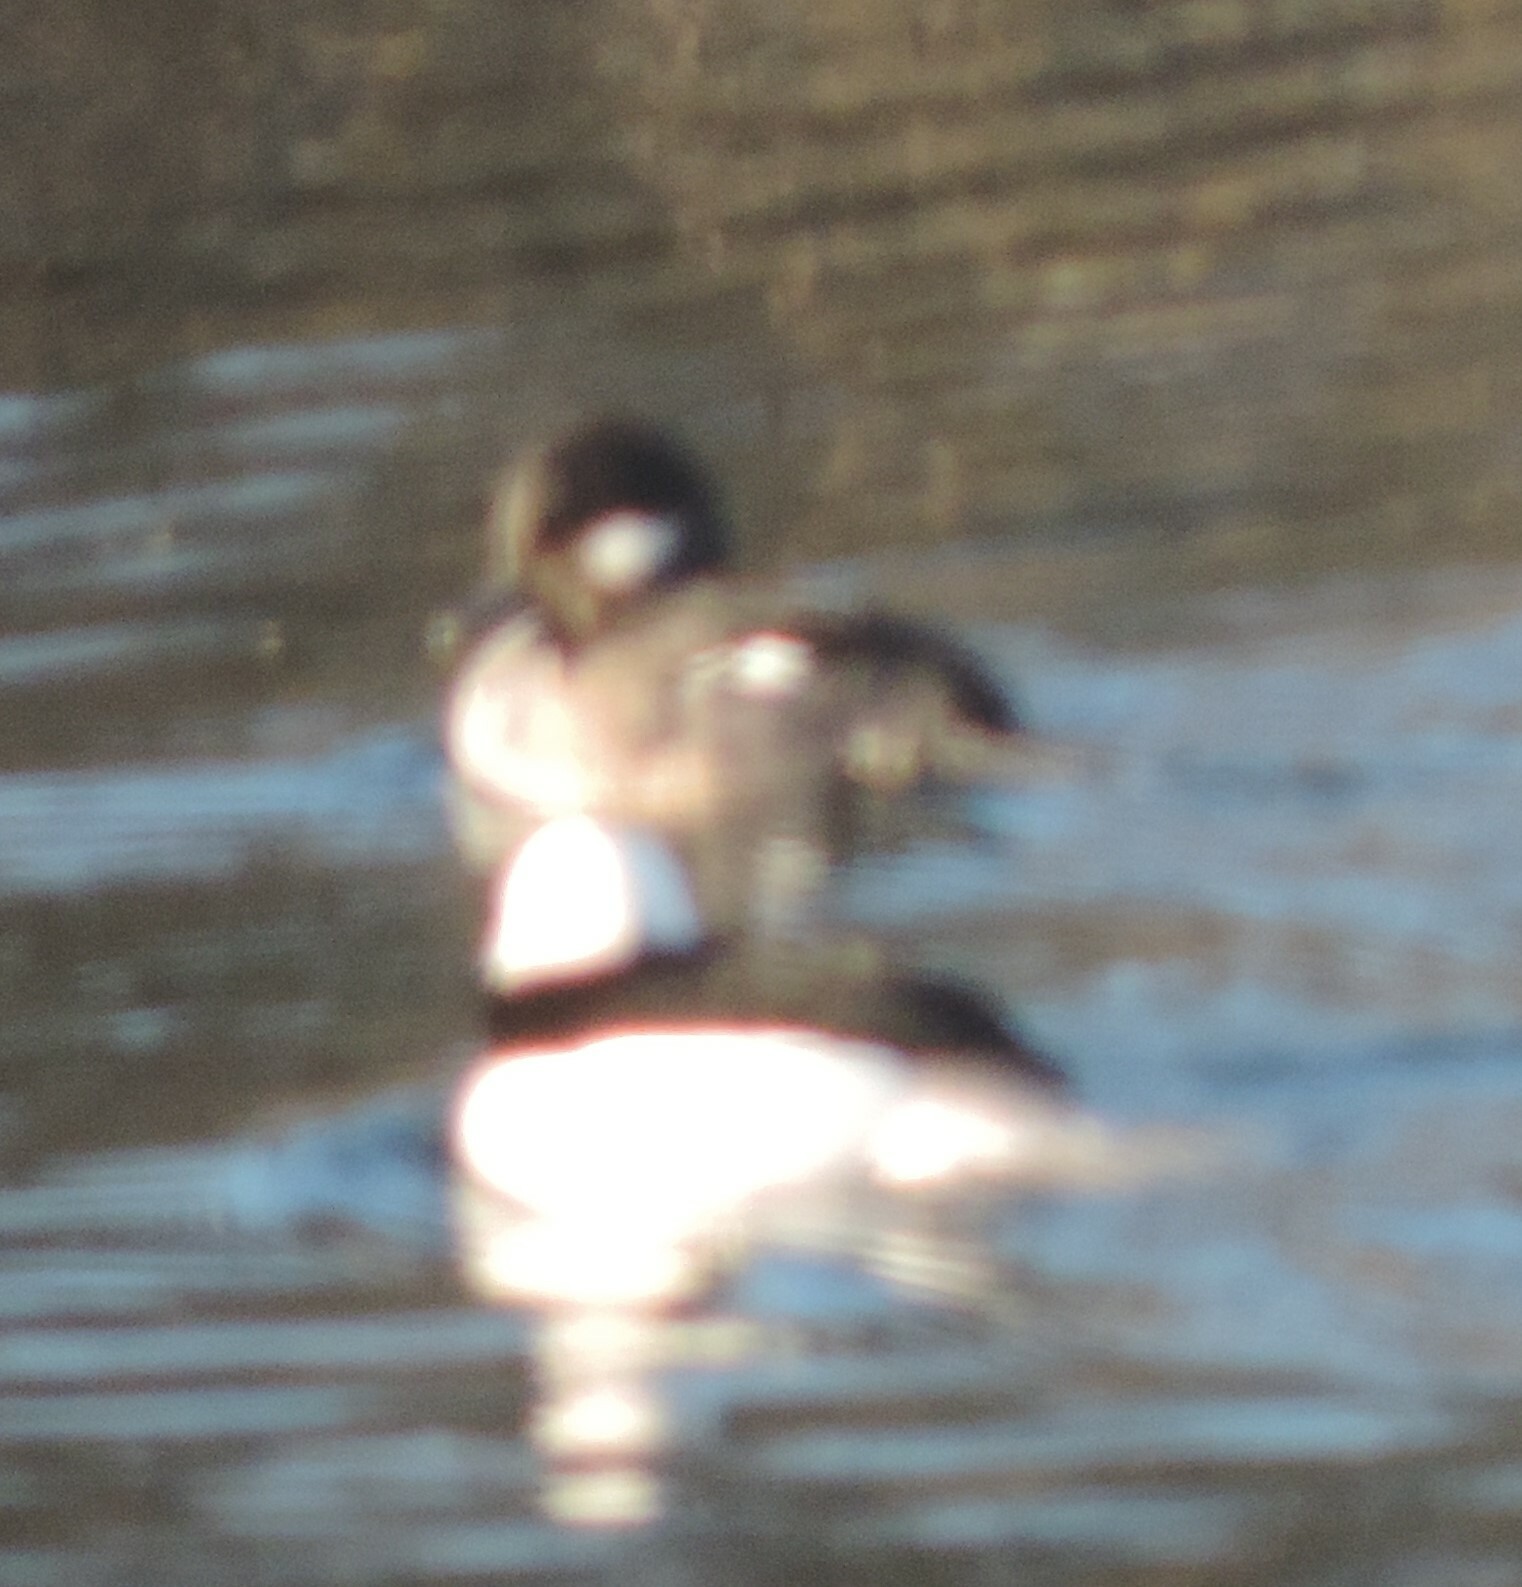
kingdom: Animalia
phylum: Chordata
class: Aves
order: Anseriformes
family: Anatidae
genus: Bucephala
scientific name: Bucephala albeola
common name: Bufflehead
